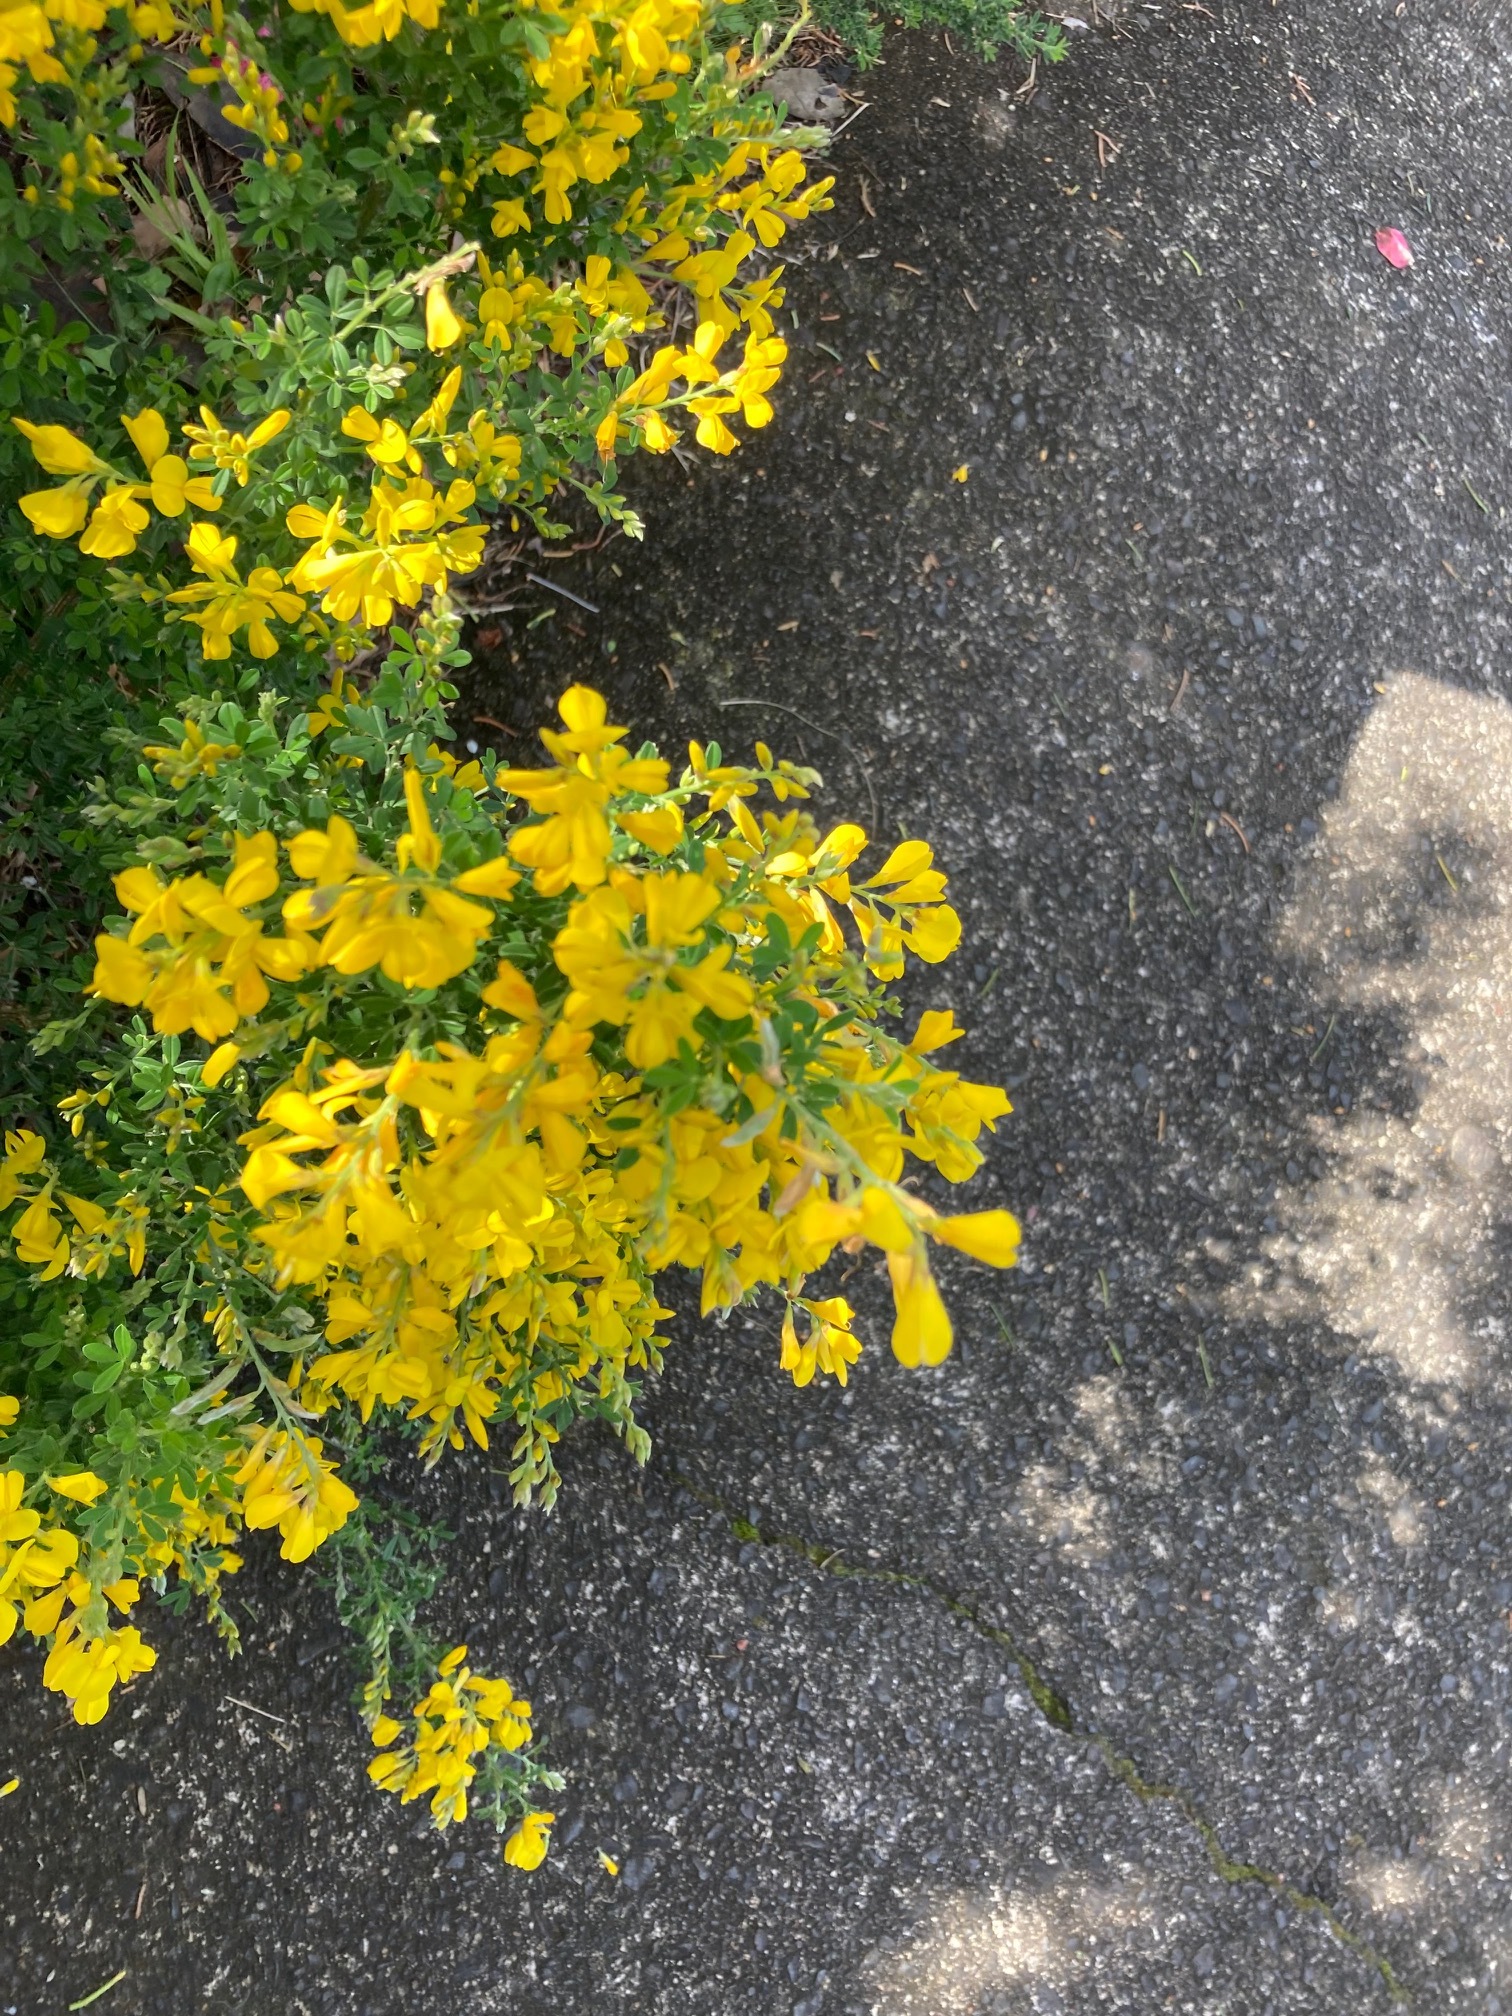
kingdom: Plantae
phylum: Tracheophyta
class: Magnoliopsida
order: Fabales
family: Fabaceae
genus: Genista
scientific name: Genista stenopetala
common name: Leafy broom
